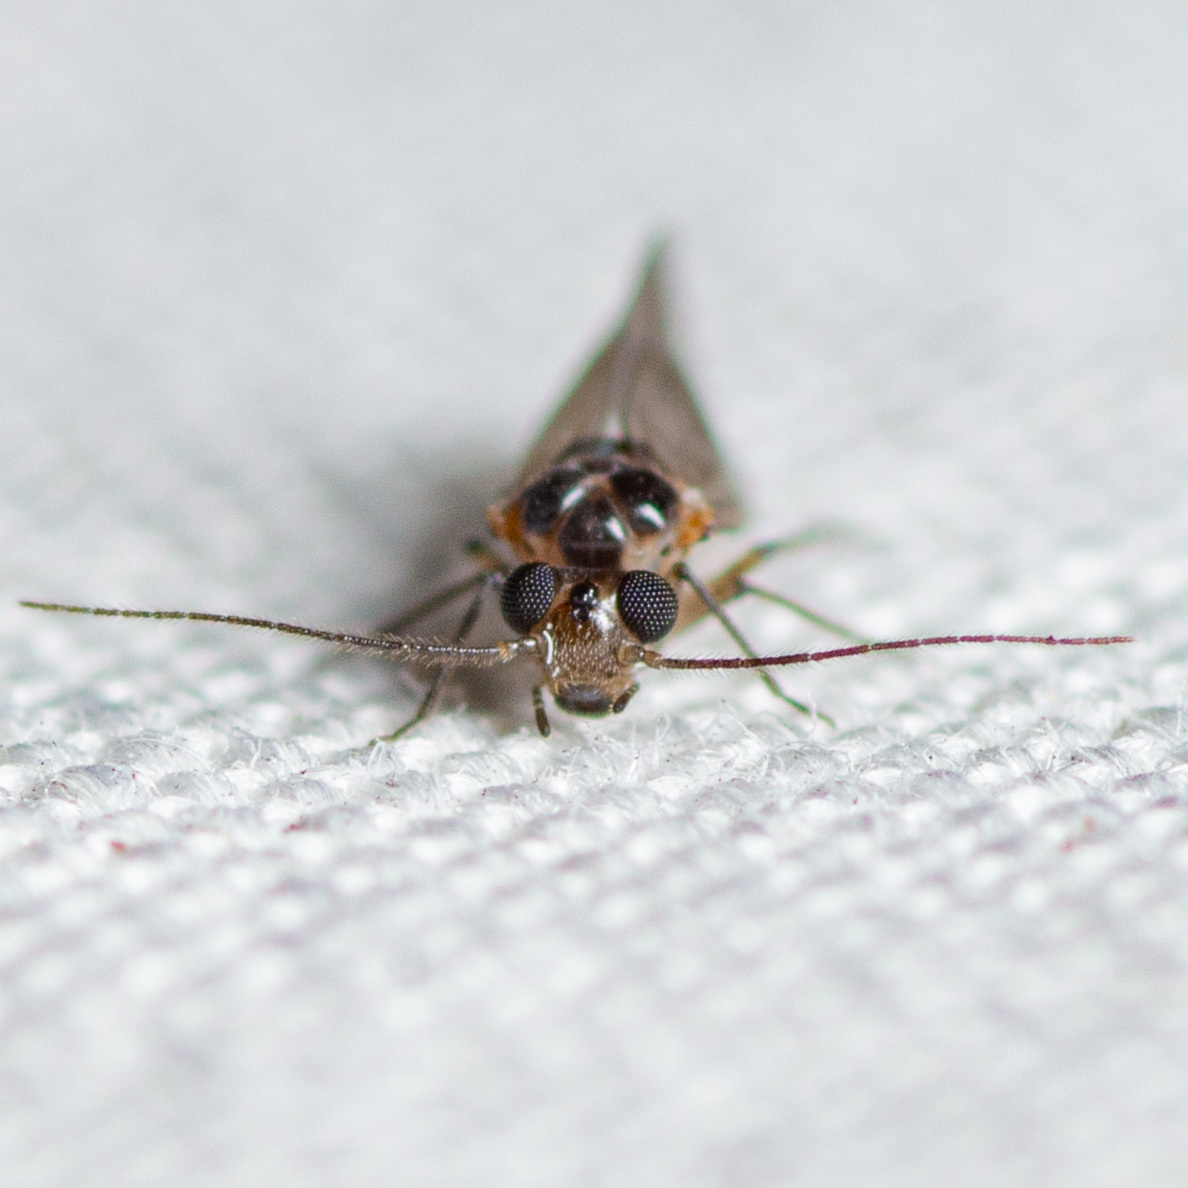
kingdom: Animalia
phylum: Arthropoda
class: Insecta
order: Psocodea
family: Peripsocidae
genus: Peripsocus
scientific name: Peripsocus madidus
